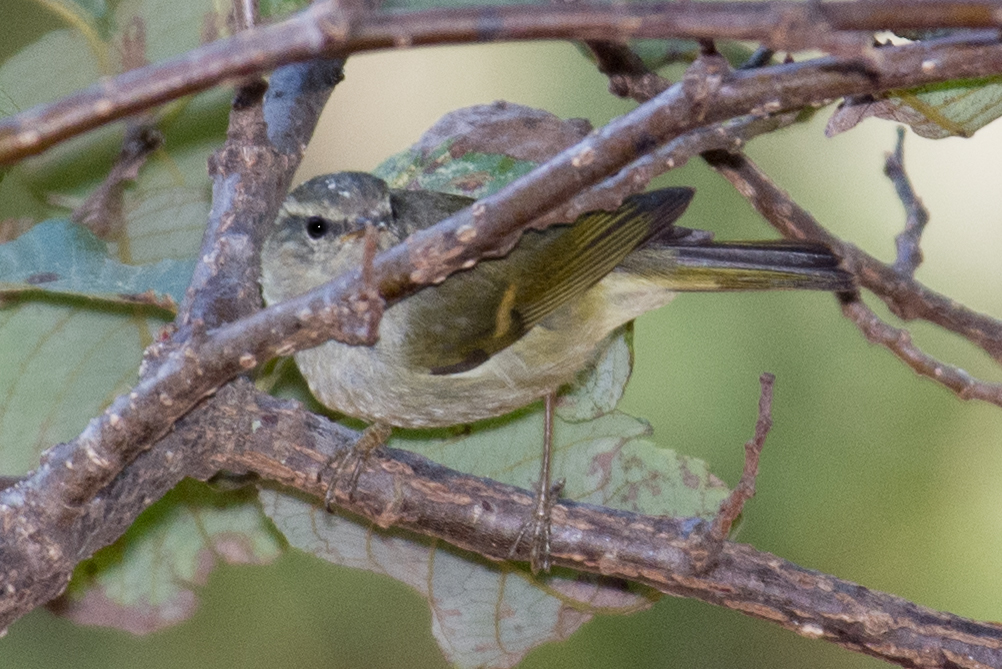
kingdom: Animalia
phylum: Chordata
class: Aves
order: Passeriformes
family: Phylloscopidae
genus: Phylloscopus
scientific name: Phylloscopus pulcher
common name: Buff-barred warbler
